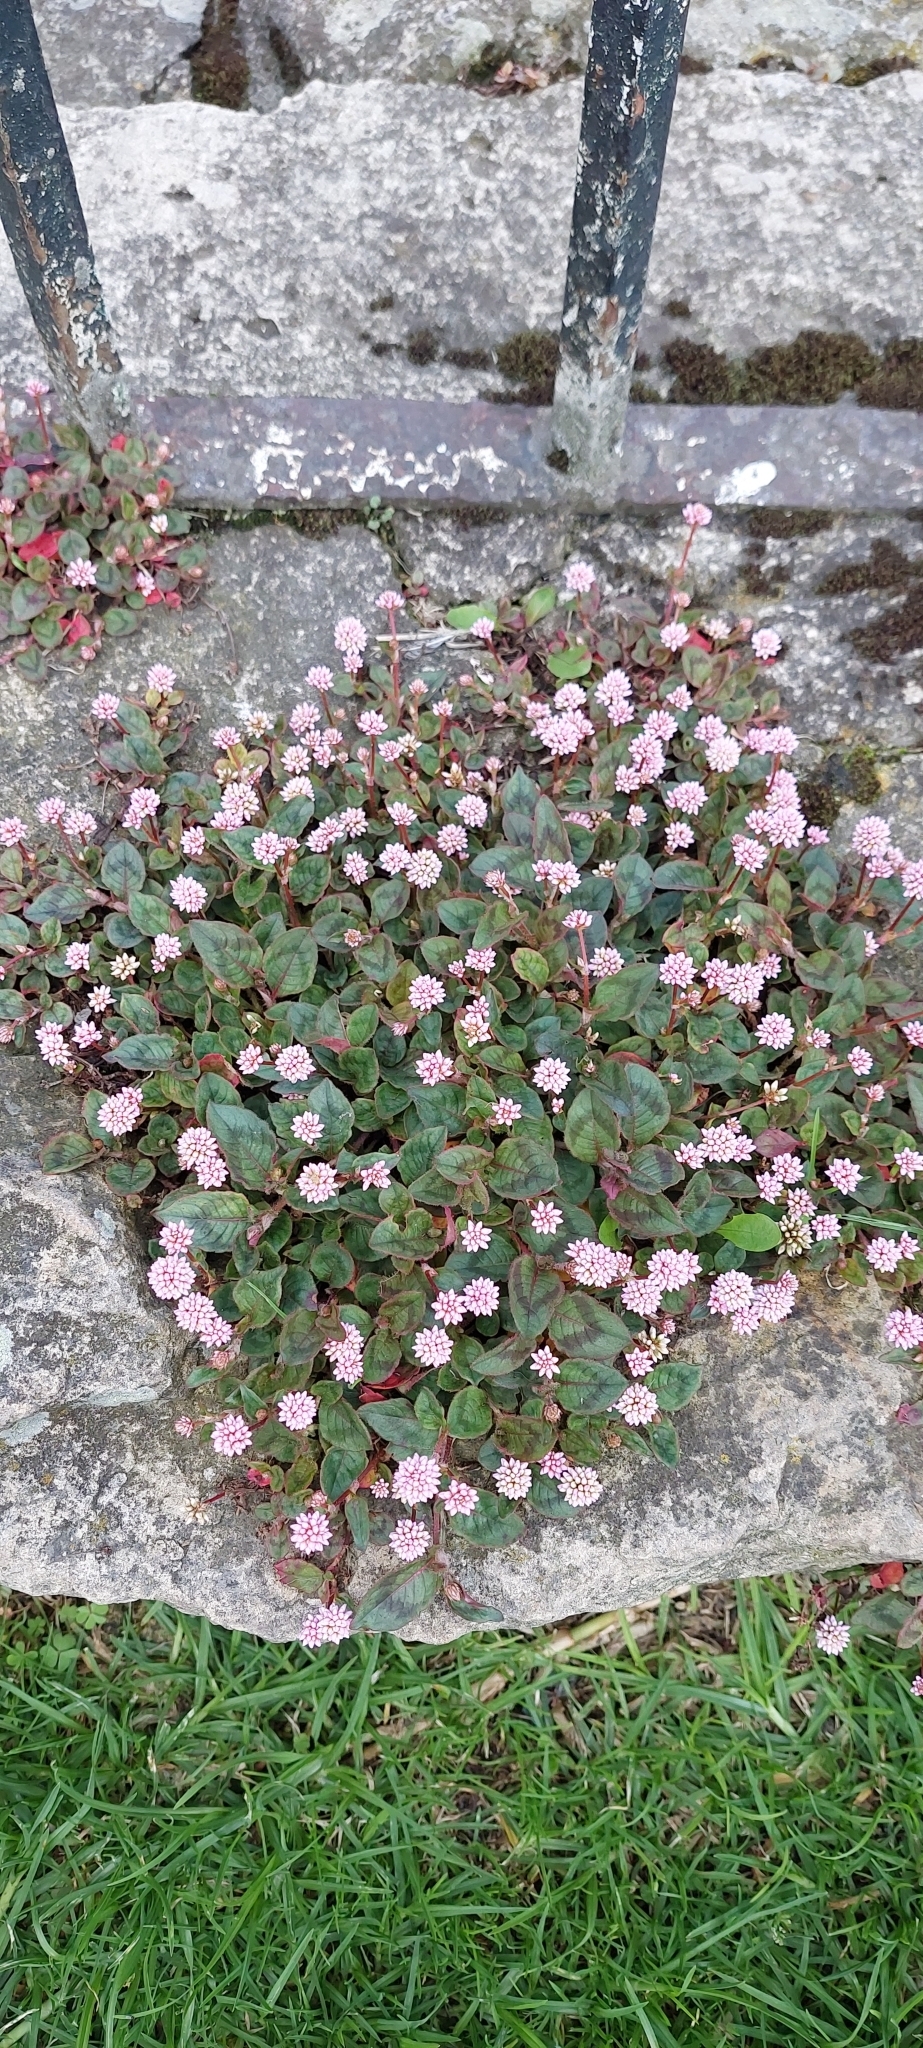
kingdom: Plantae
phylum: Tracheophyta
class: Magnoliopsida
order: Caryophyllales
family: Polygonaceae
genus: Persicaria
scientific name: Persicaria capitata
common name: Pinkhead smartweed
